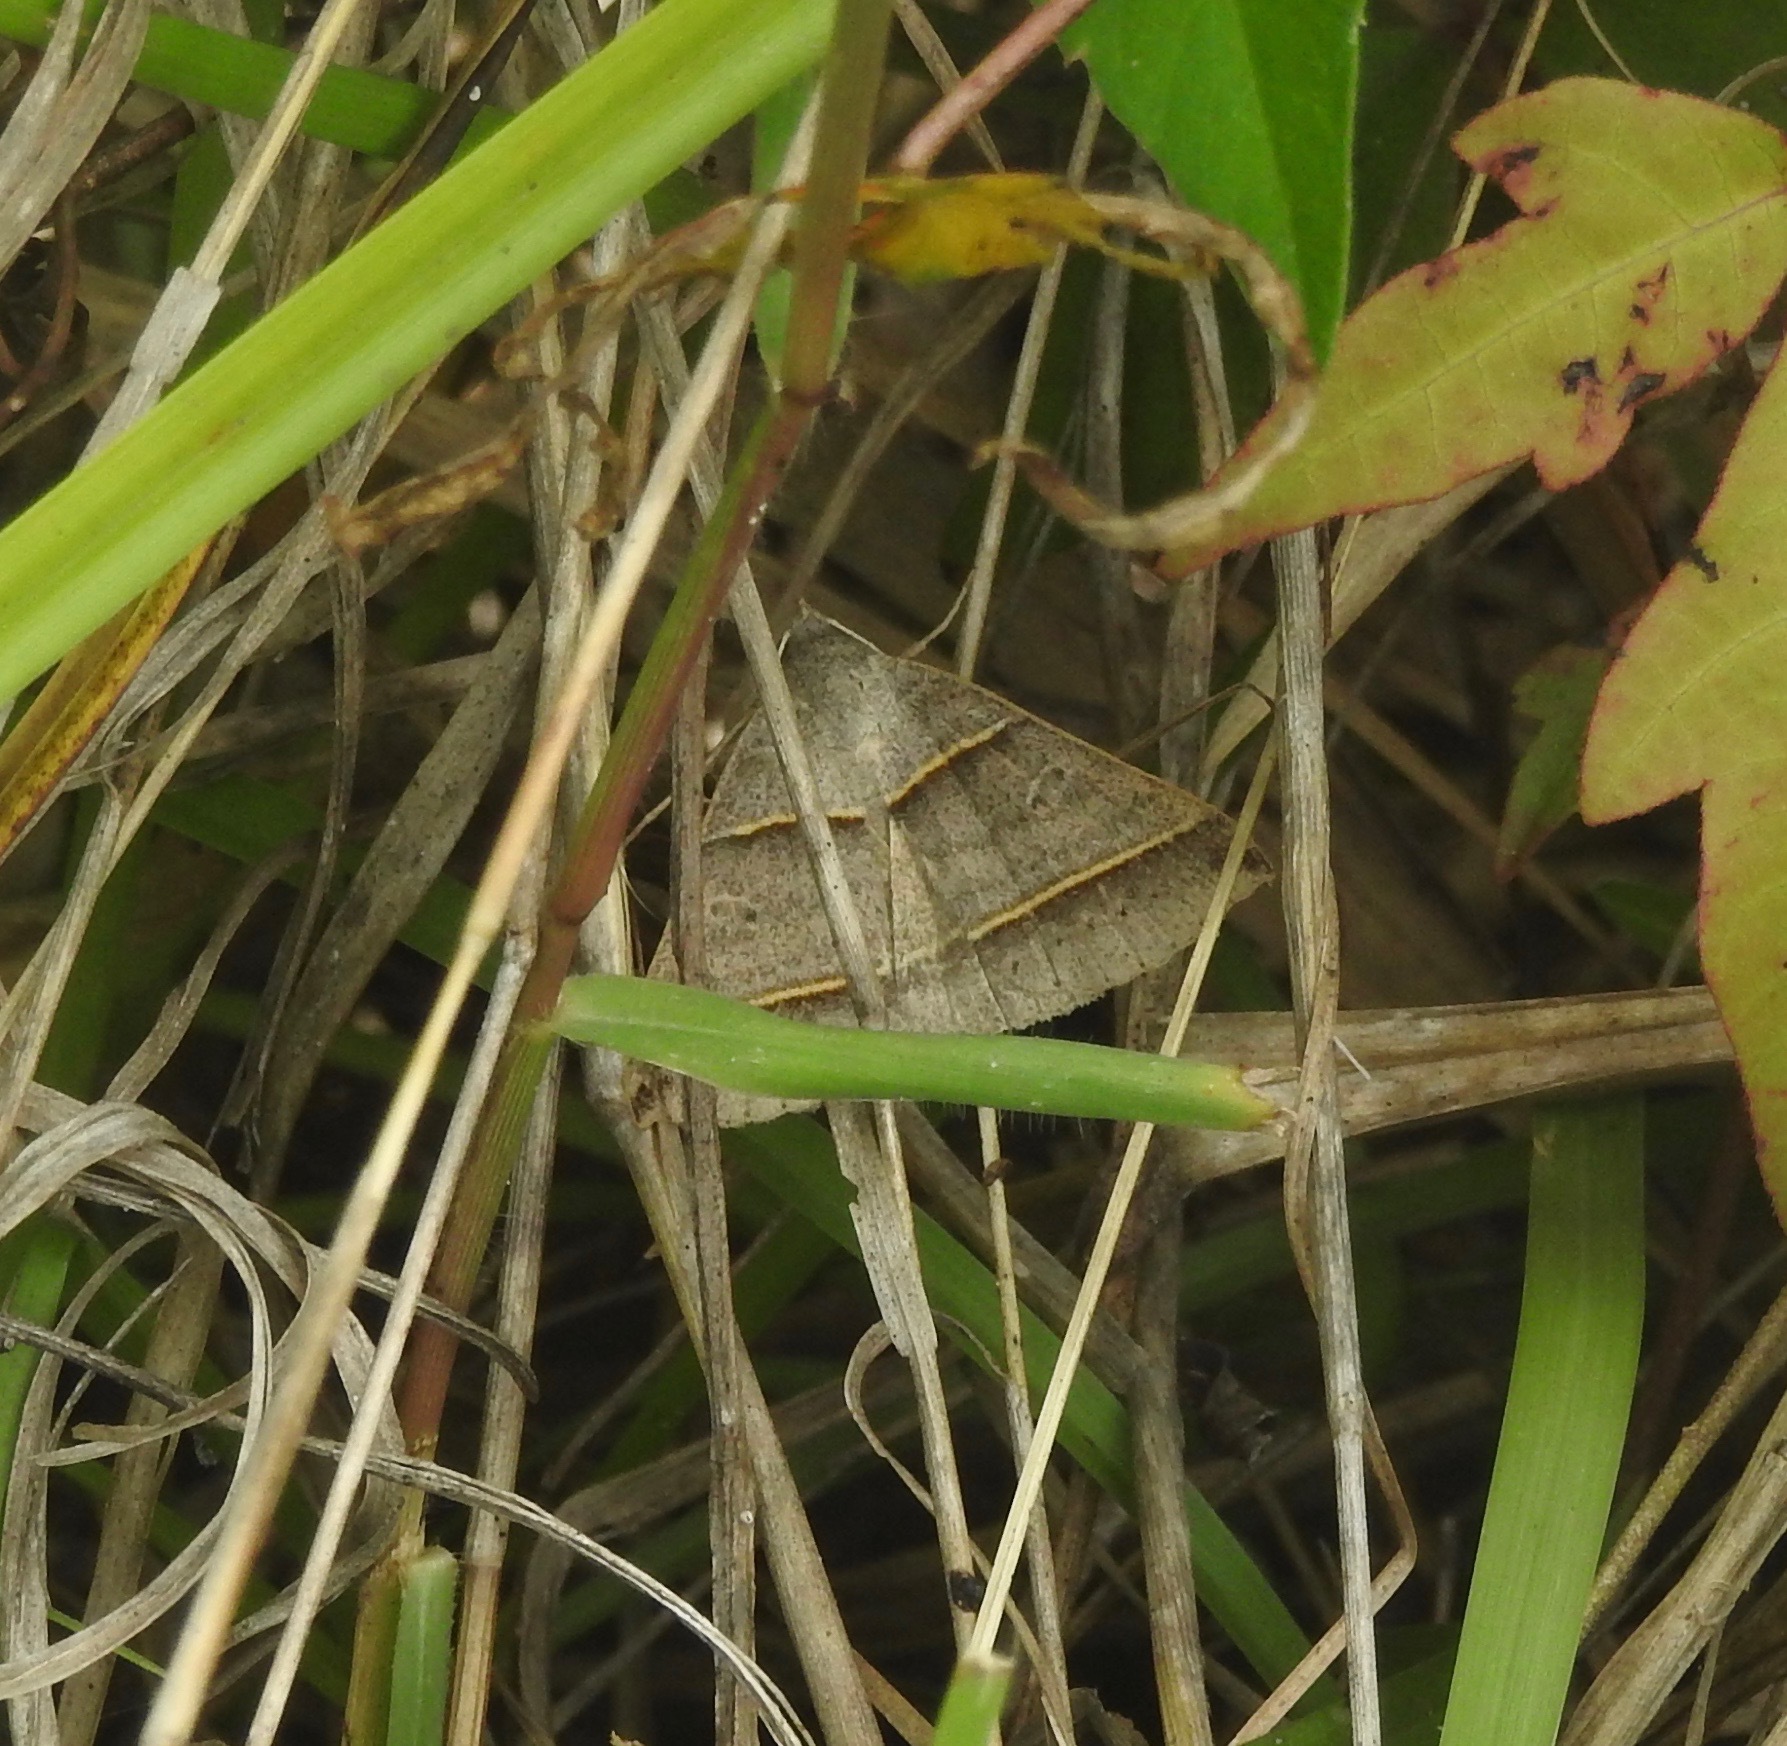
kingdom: Animalia
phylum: Arthropoda
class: Insecta
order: Lepidoptera
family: Erebidae
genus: Ptichodis
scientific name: Ptichodis vinculum
